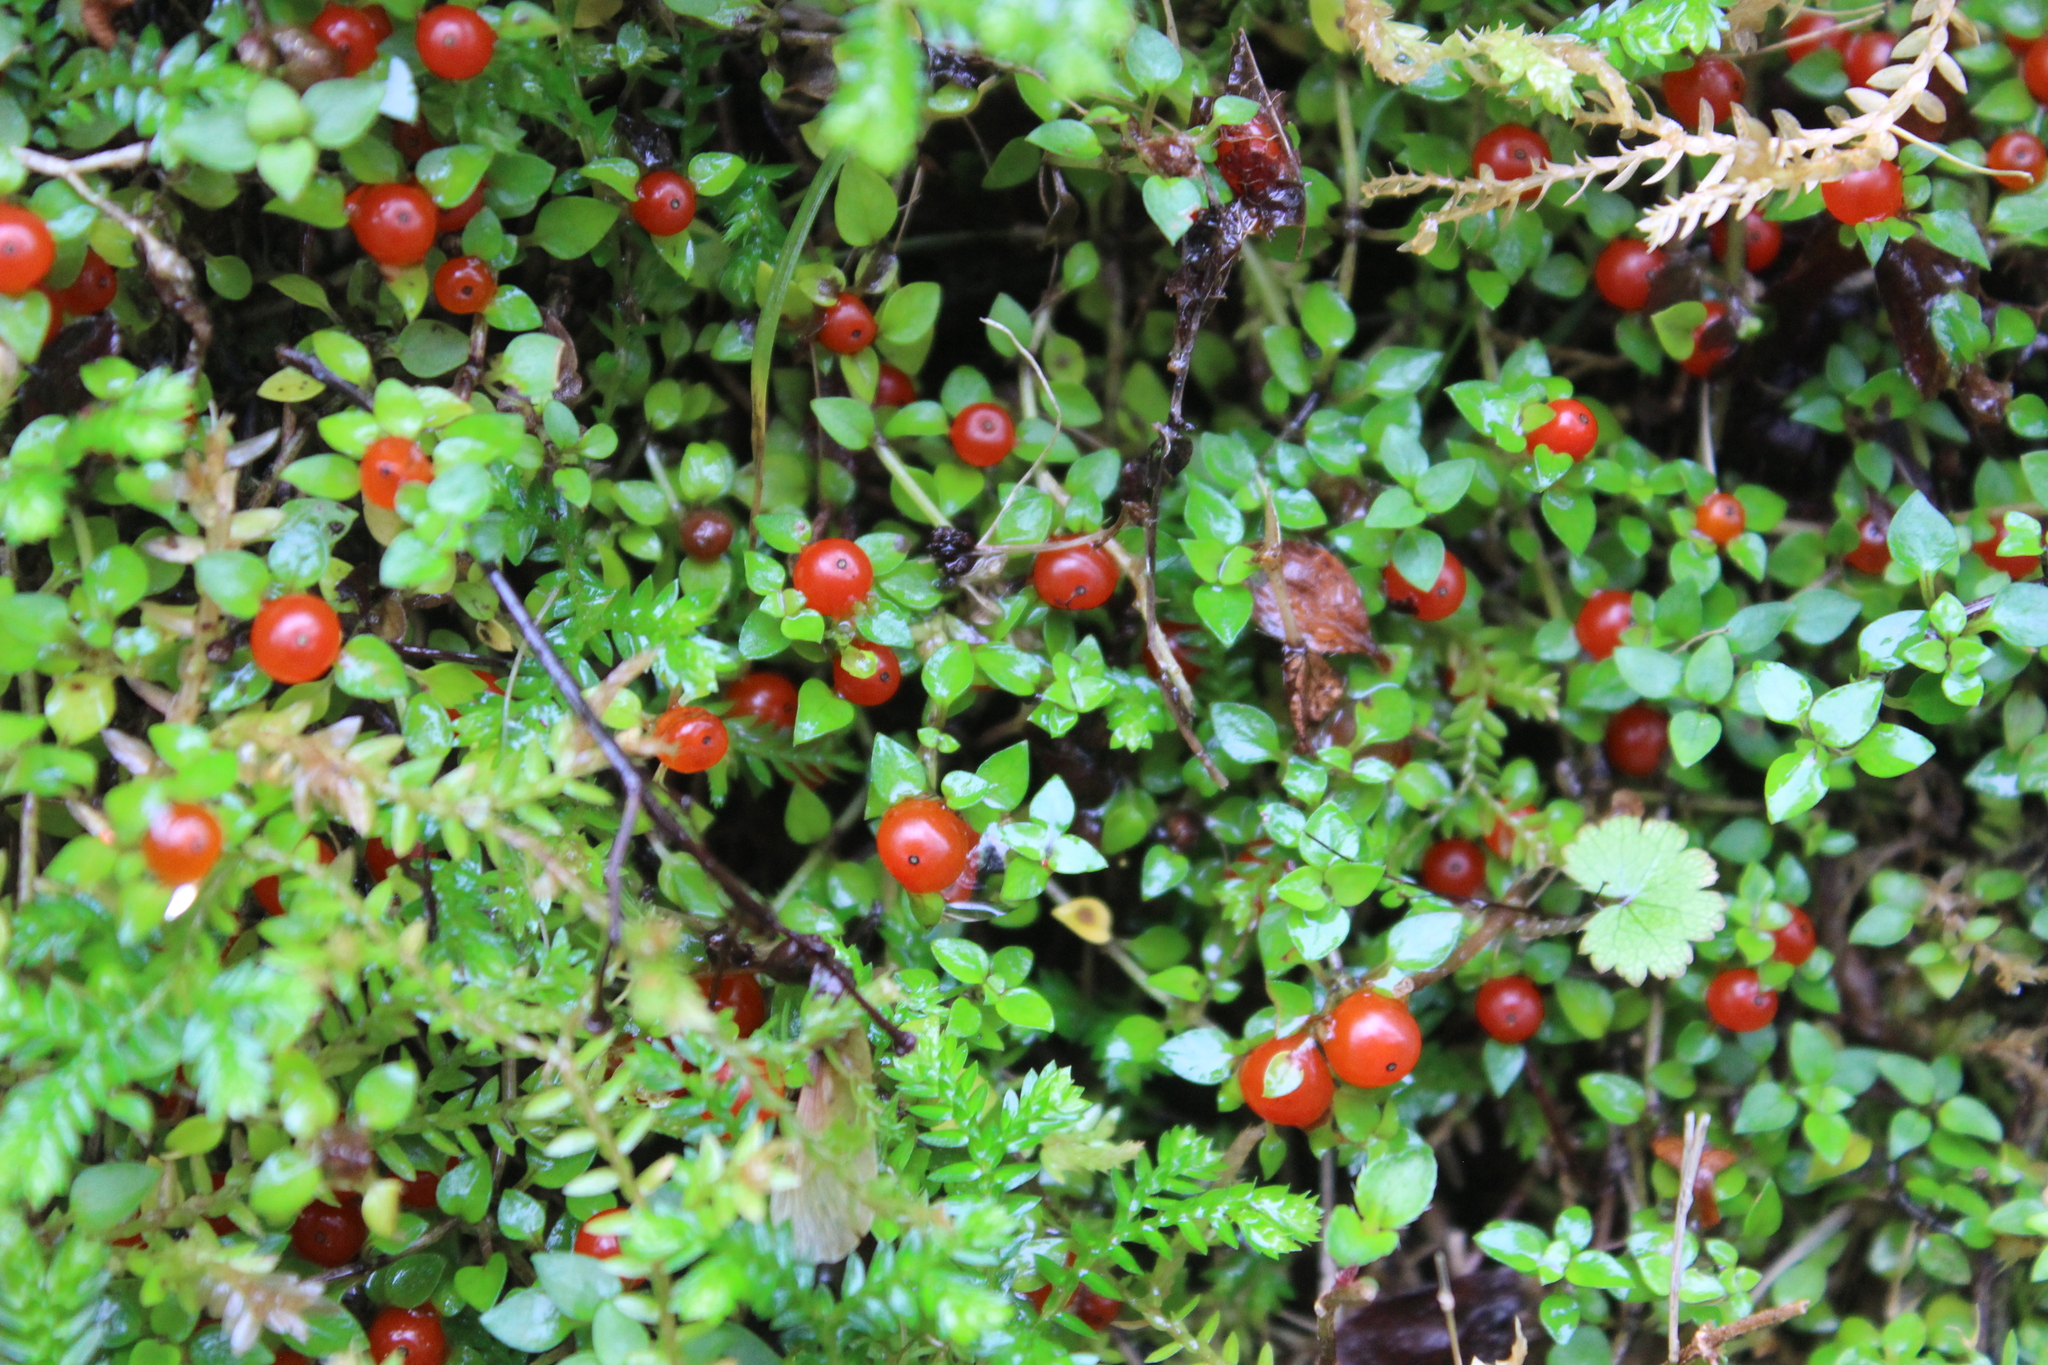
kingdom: Plantae
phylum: Tracheophyta
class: Magnoliopsida
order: Gentianales
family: Rubiaceae
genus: Nertera
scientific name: Nertera granadensis
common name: Beadplant
